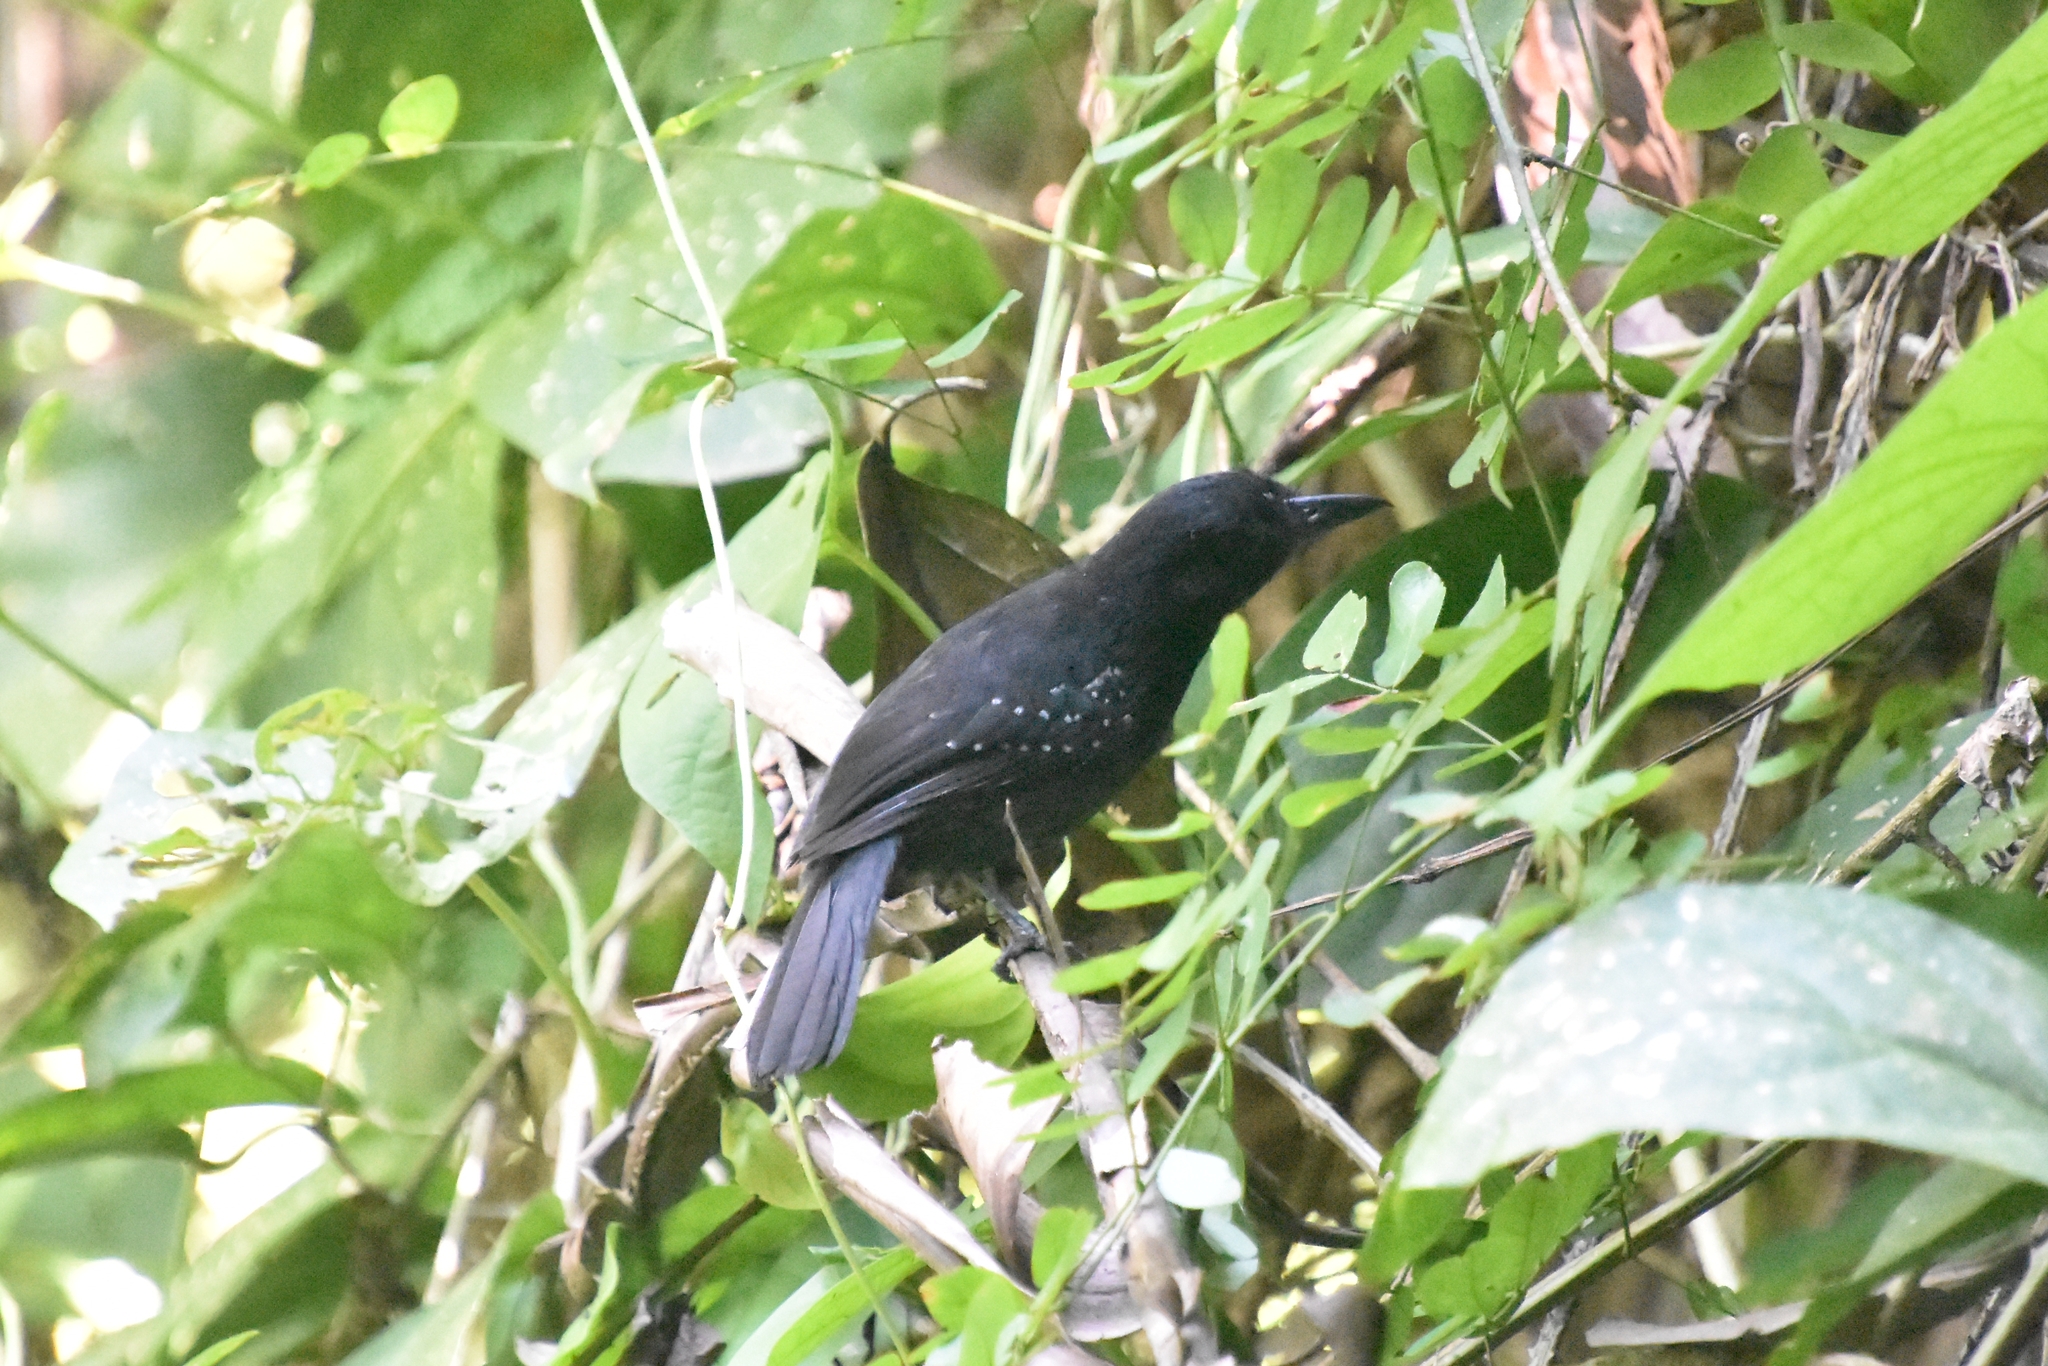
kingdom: Animalia
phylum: Chordata
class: Aves
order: Passeriformes
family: Thamnophilidae
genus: Thamnophilus
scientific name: Thamnophilus bridgesi
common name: Black-hooded antshrike
